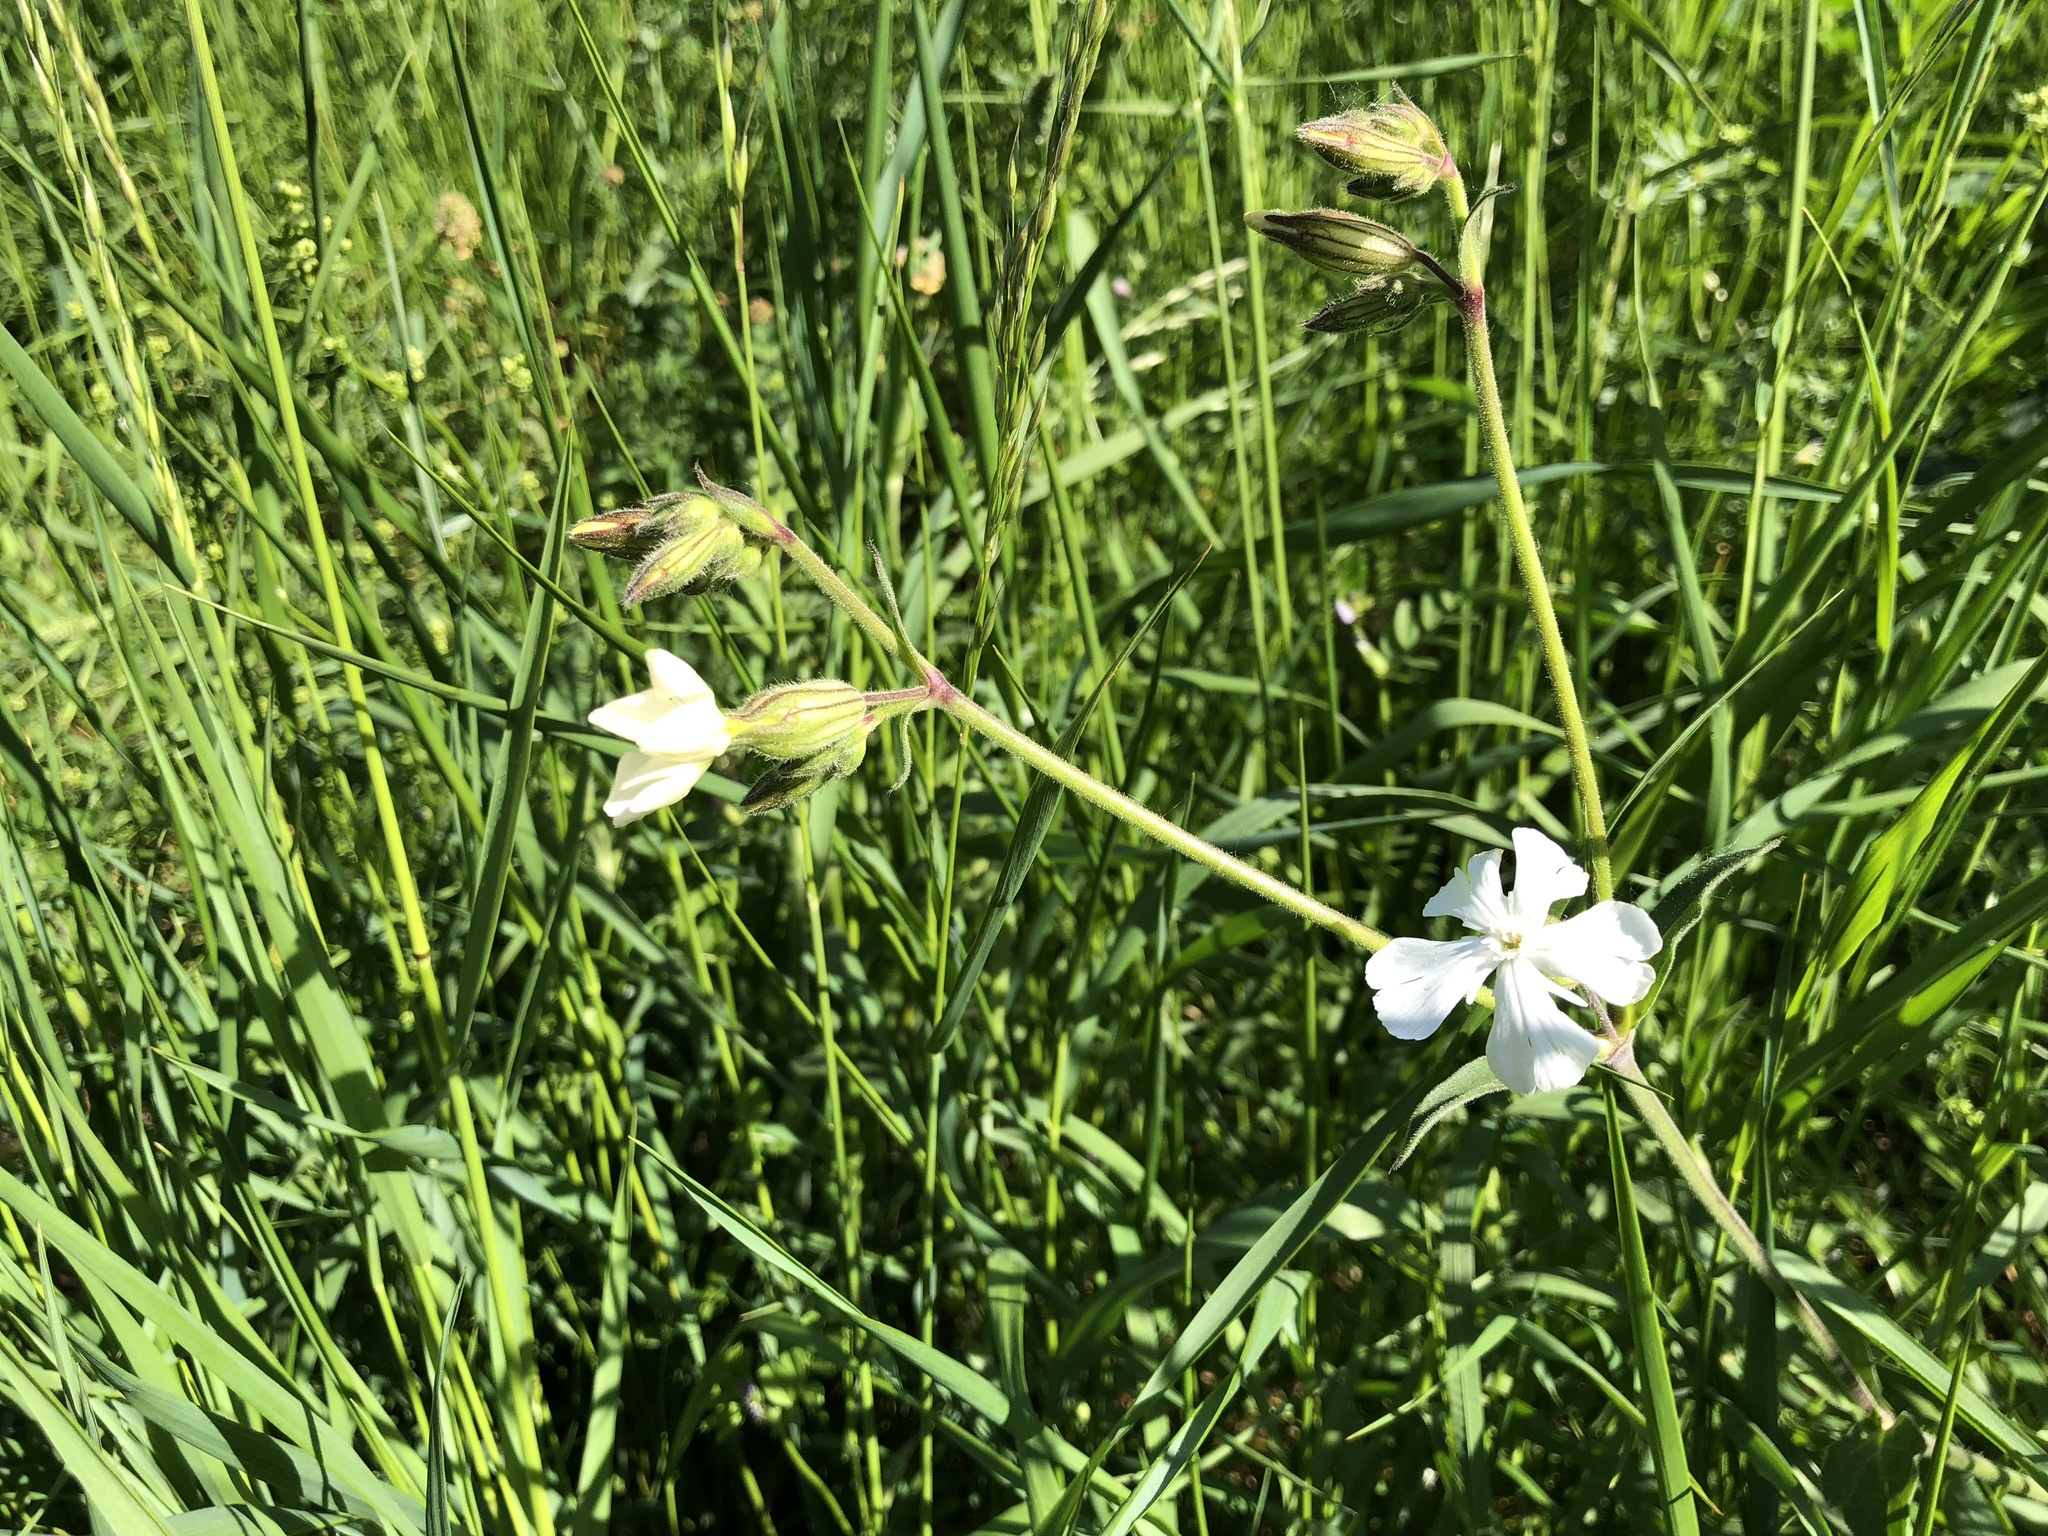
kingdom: Plantae
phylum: Tracheophyta
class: Magnoliopsida
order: Caryophyllales
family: Caryophyllaceae
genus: Silene
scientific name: Silene latifolia
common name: White campion
